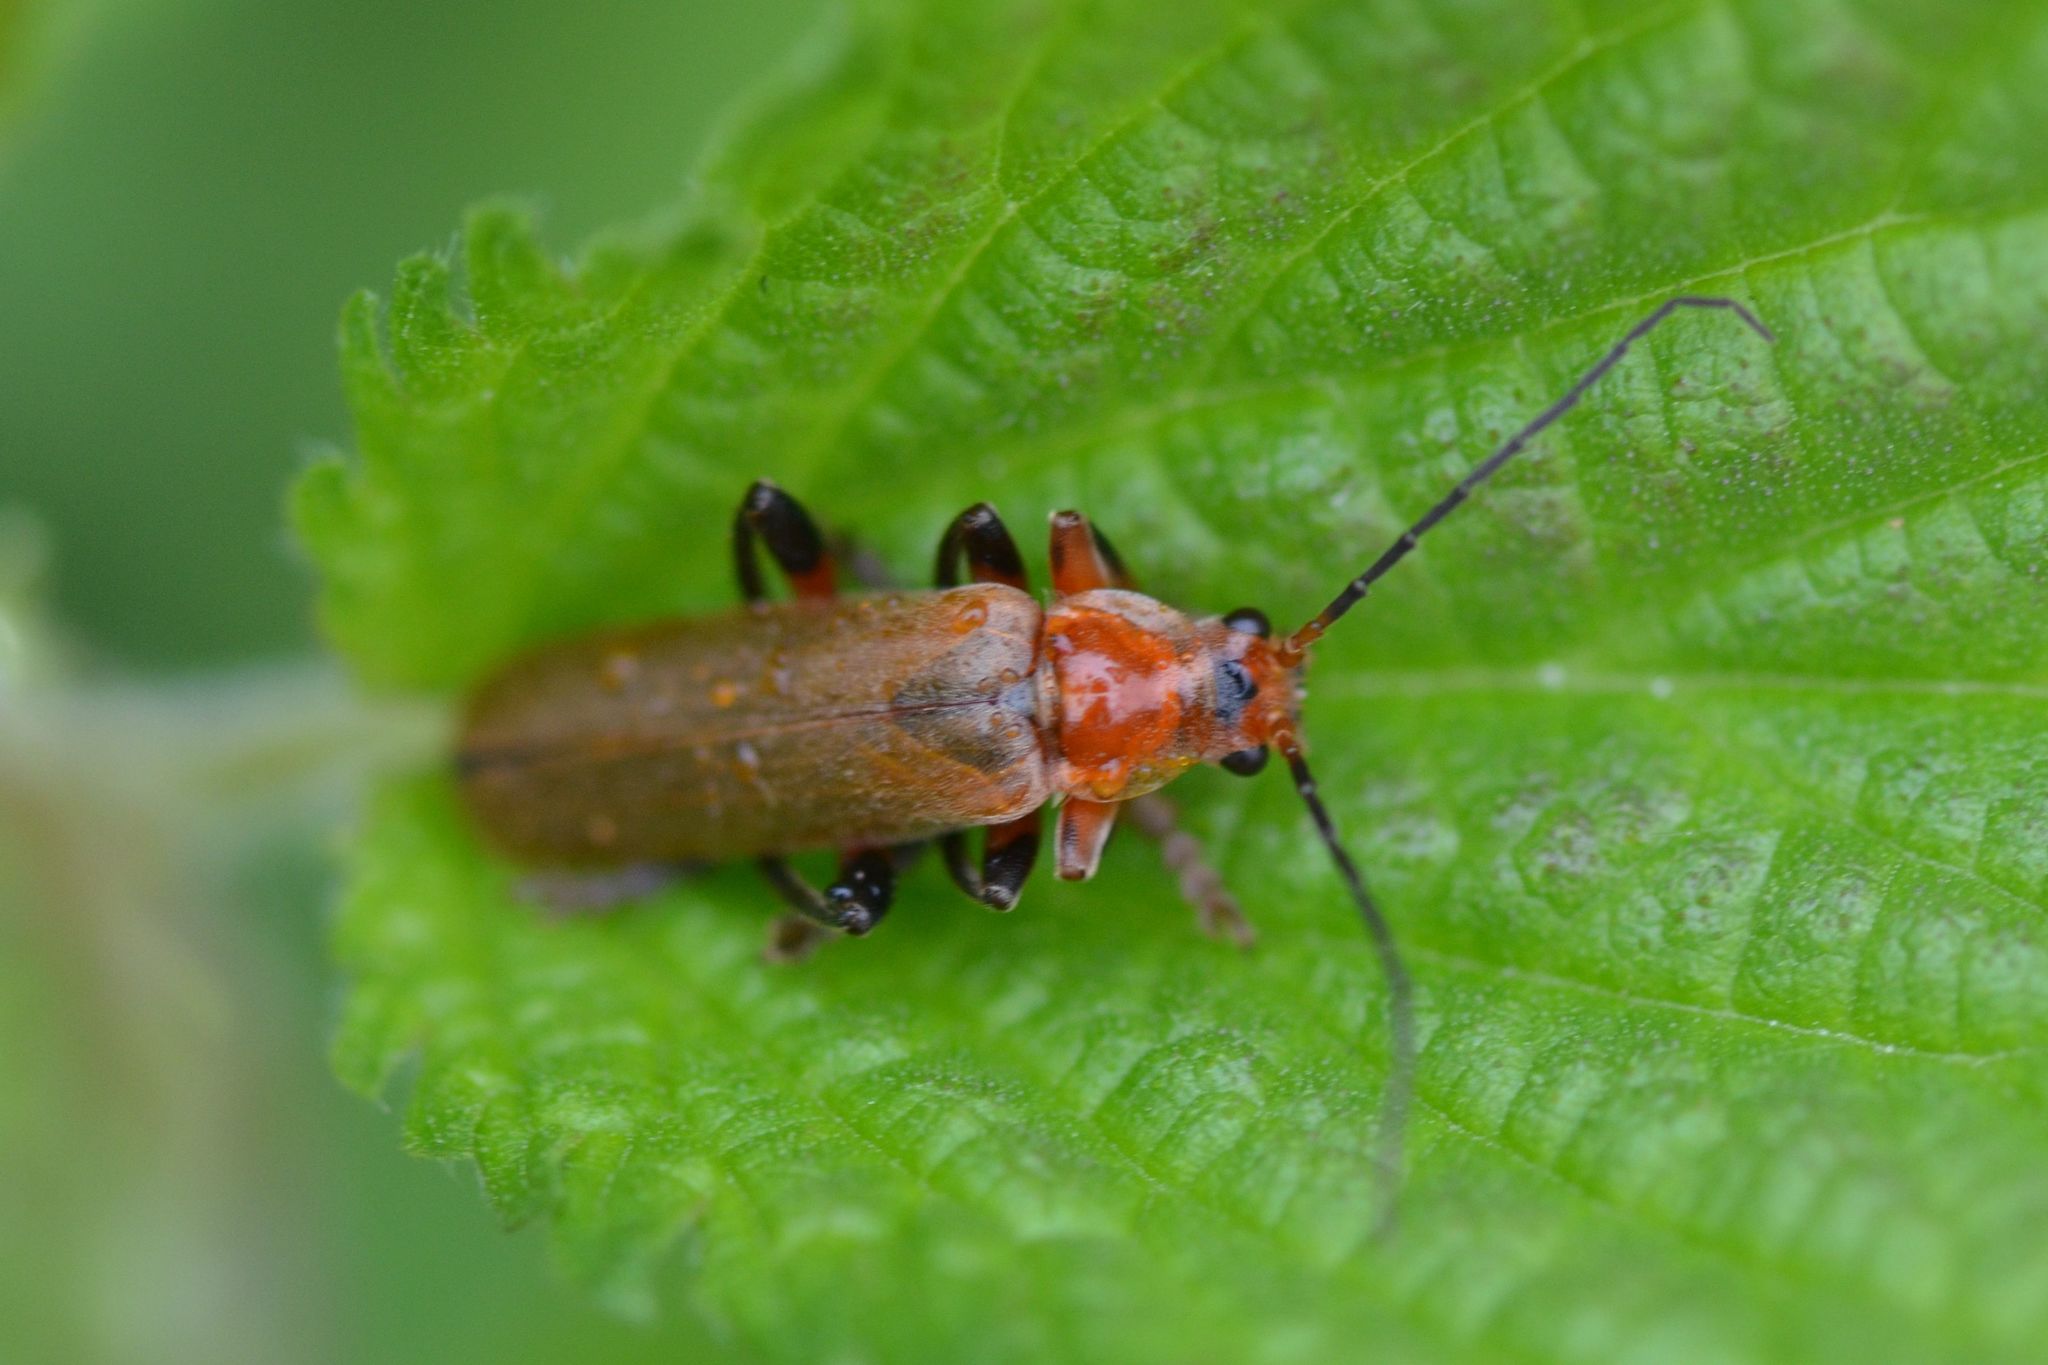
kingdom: Animalia
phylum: Arthropoda
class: Insecta
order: Coleoptera
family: Cantharidae
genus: Cantharis
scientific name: Cantharis livida
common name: Livid soldier beetle
